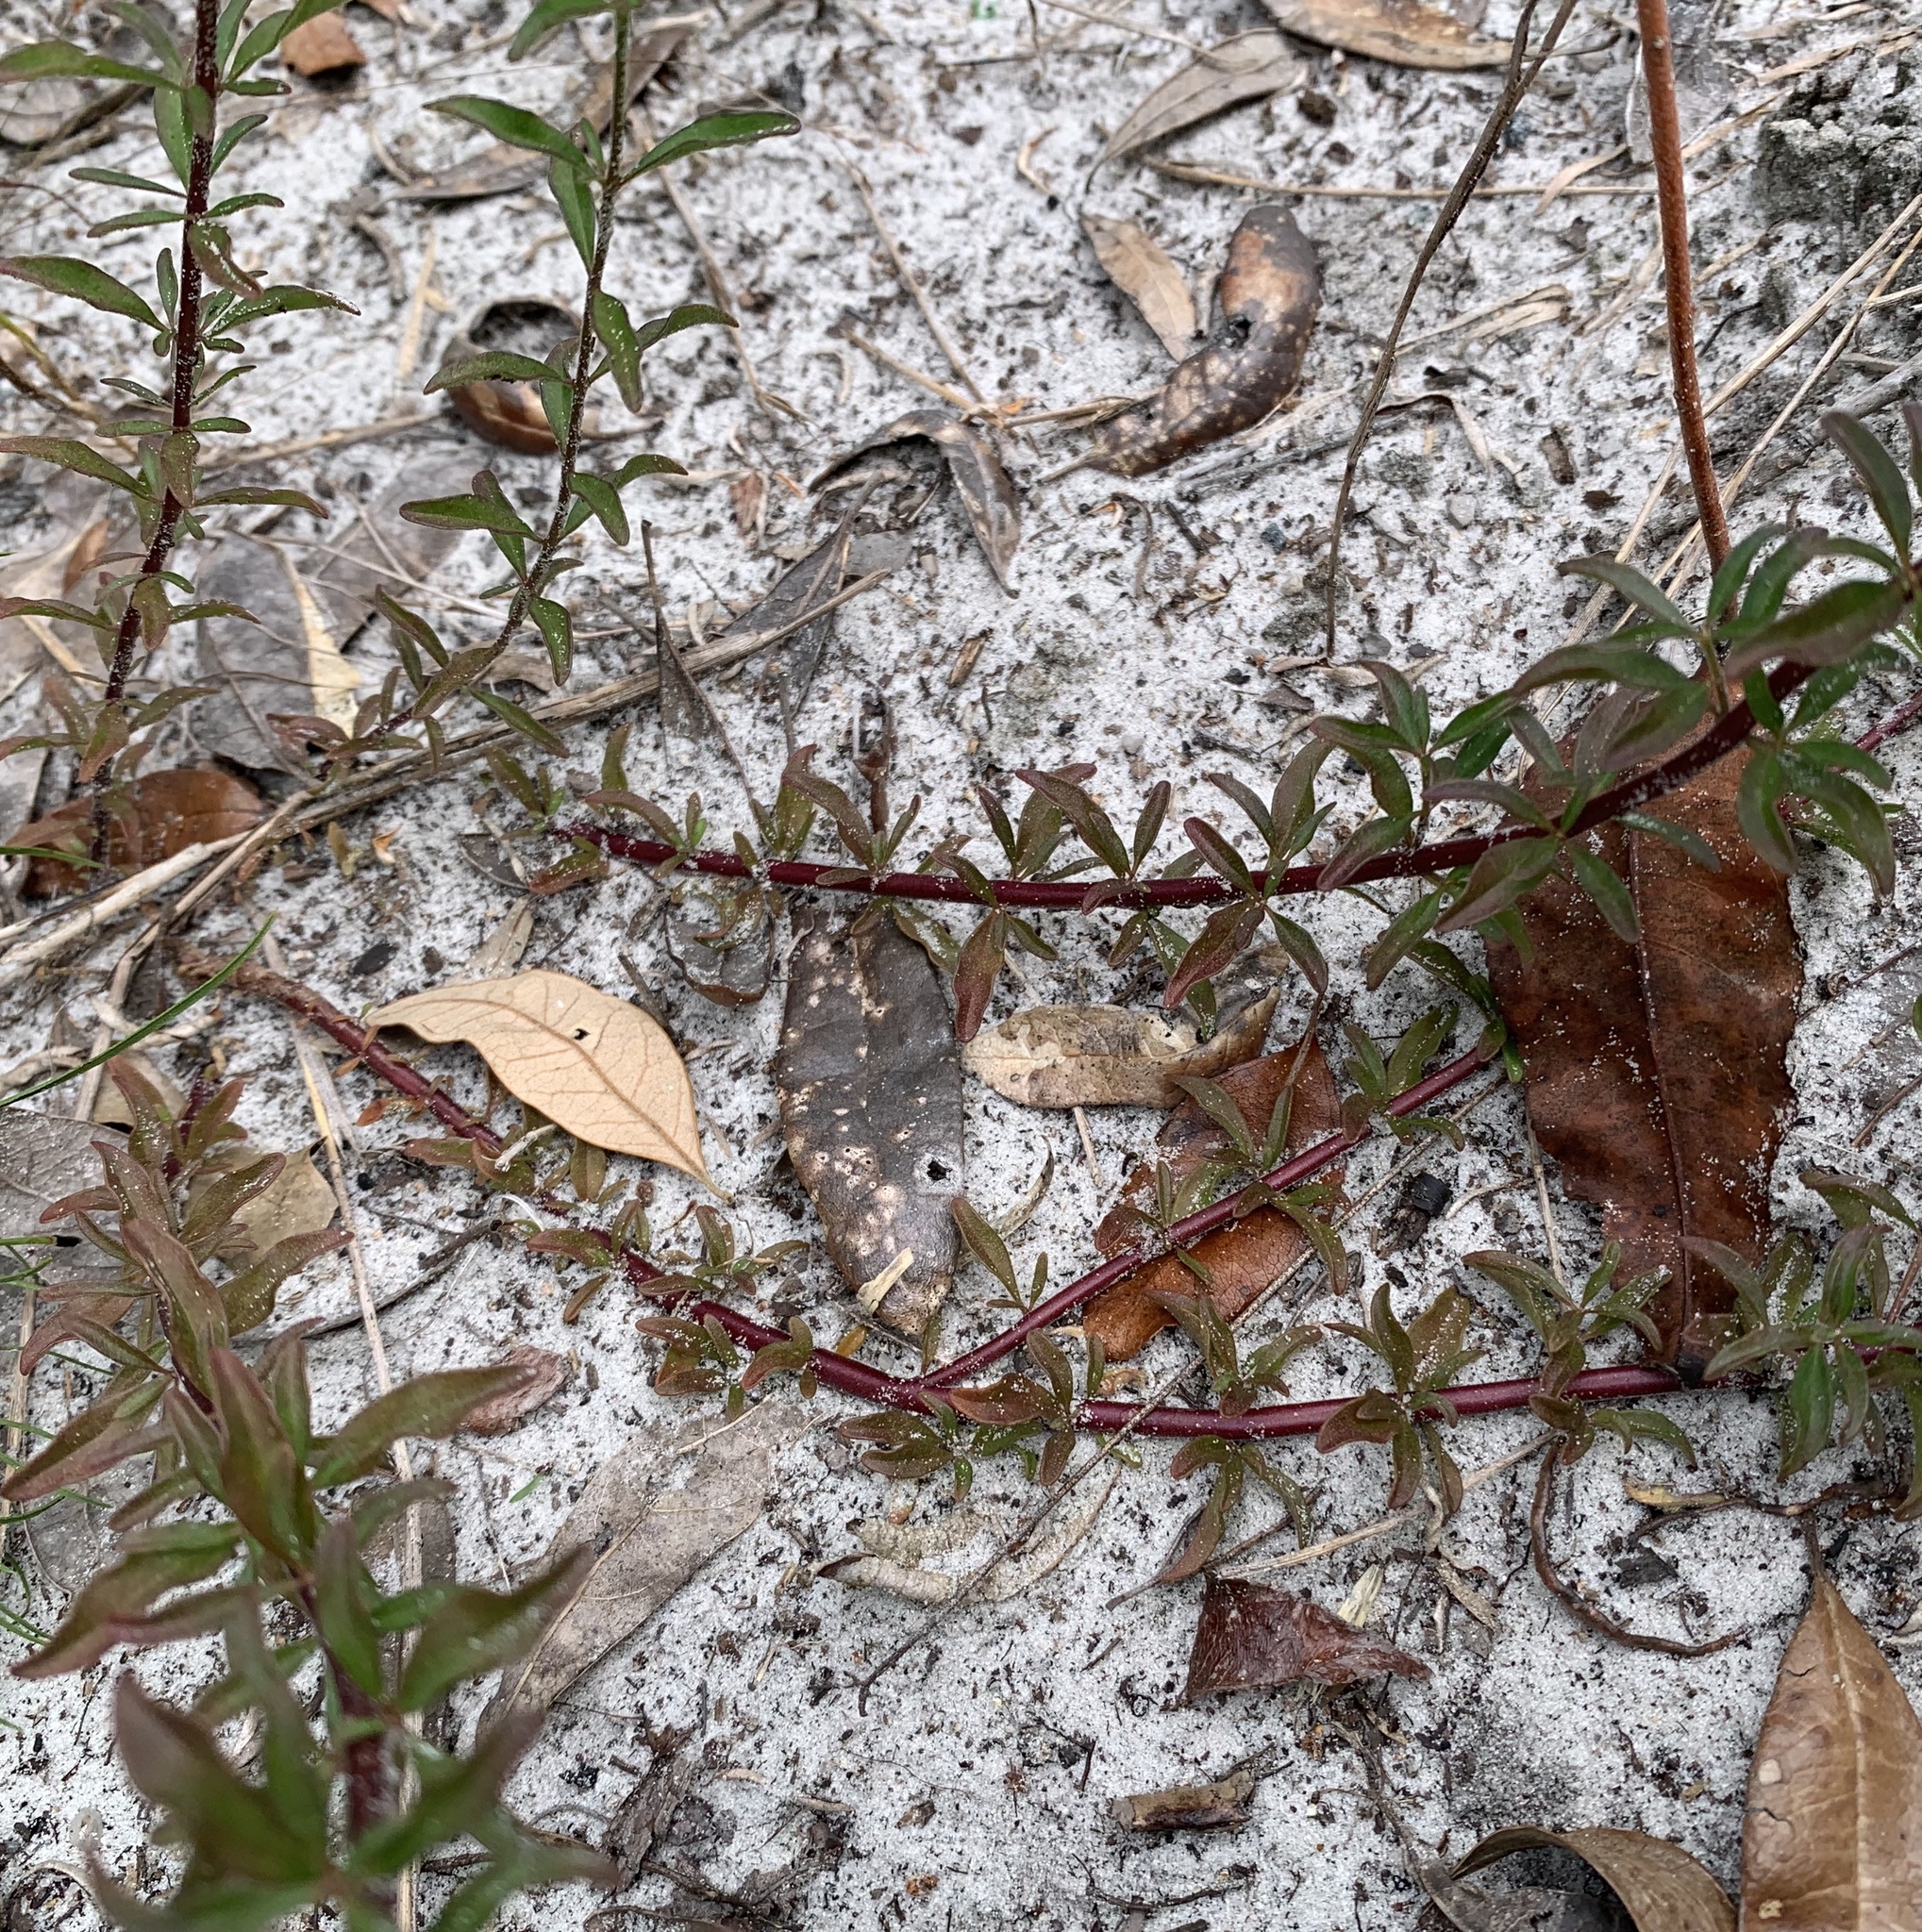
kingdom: Plantae
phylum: Tracheophyta
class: Magnoliopsida
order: Lamiales
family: Lamiaceae
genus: Trichostema
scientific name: Trichostema microphyllum
